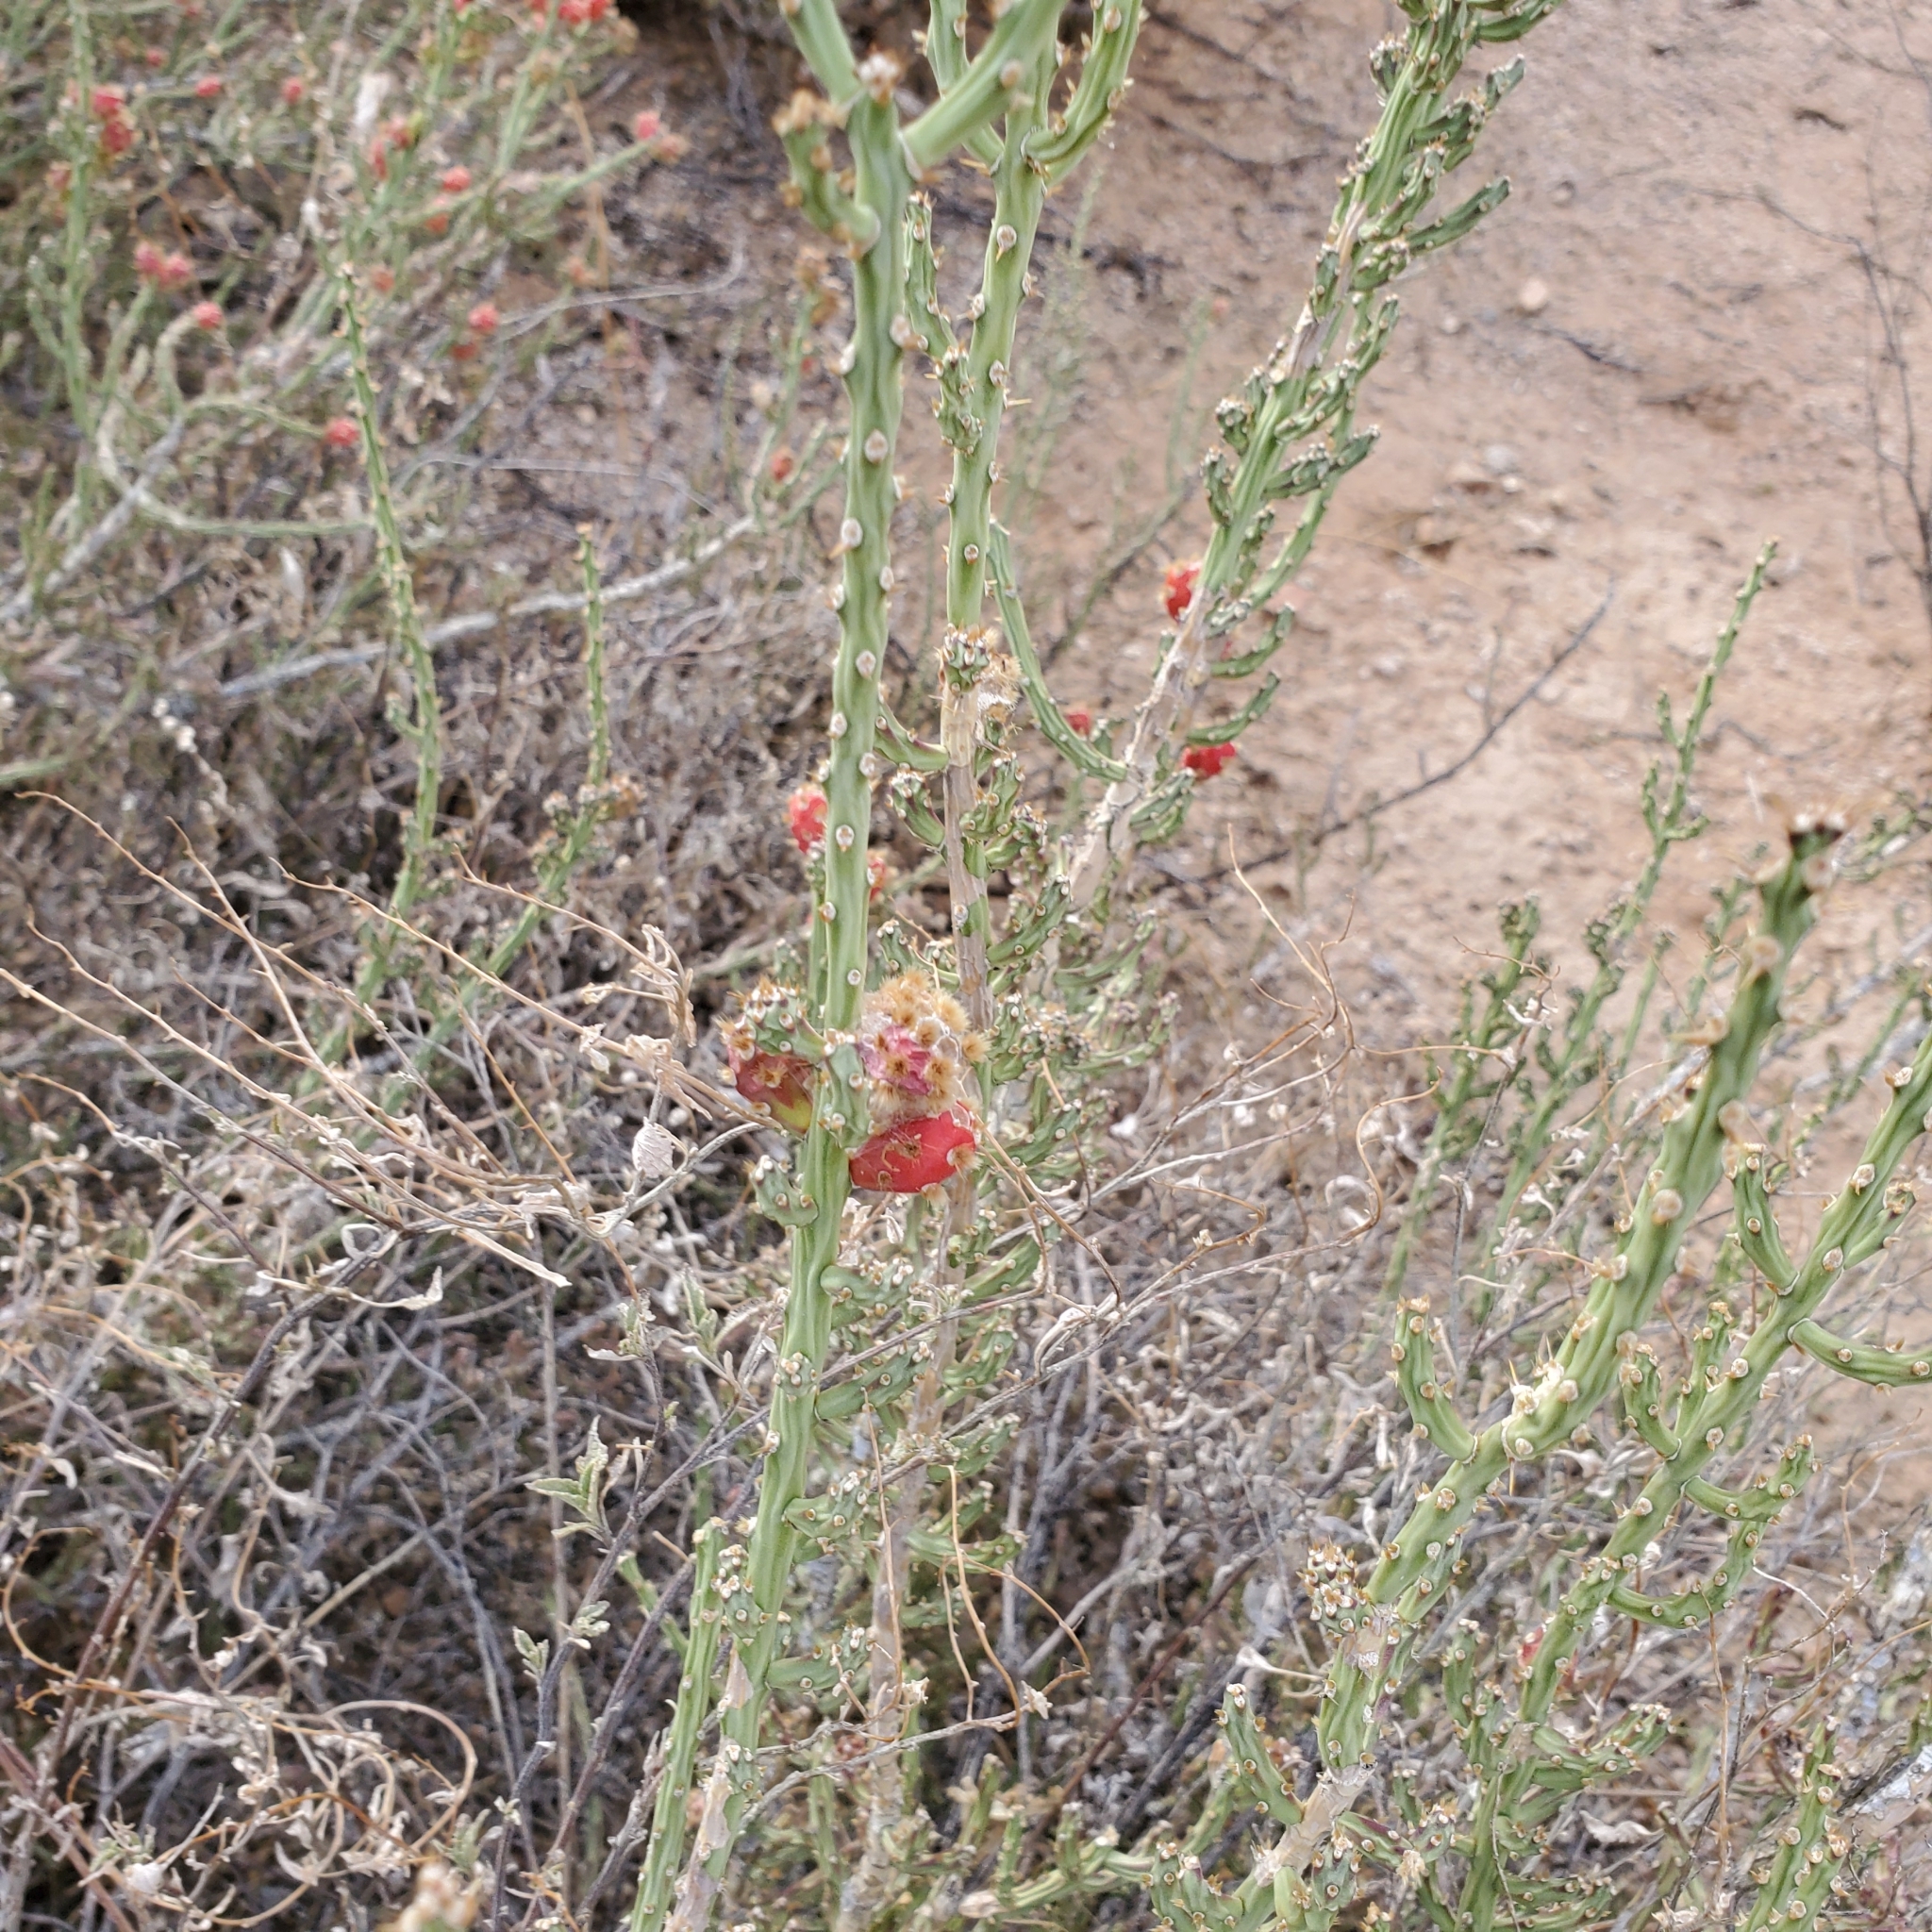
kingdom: Plantae
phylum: Tracheophyta
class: Magnoliopsida
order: Caryophyllales
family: Cactaceae
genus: Cylindropuntia
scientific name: Cylindropuntia leptocaulis
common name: Christmas cactus
